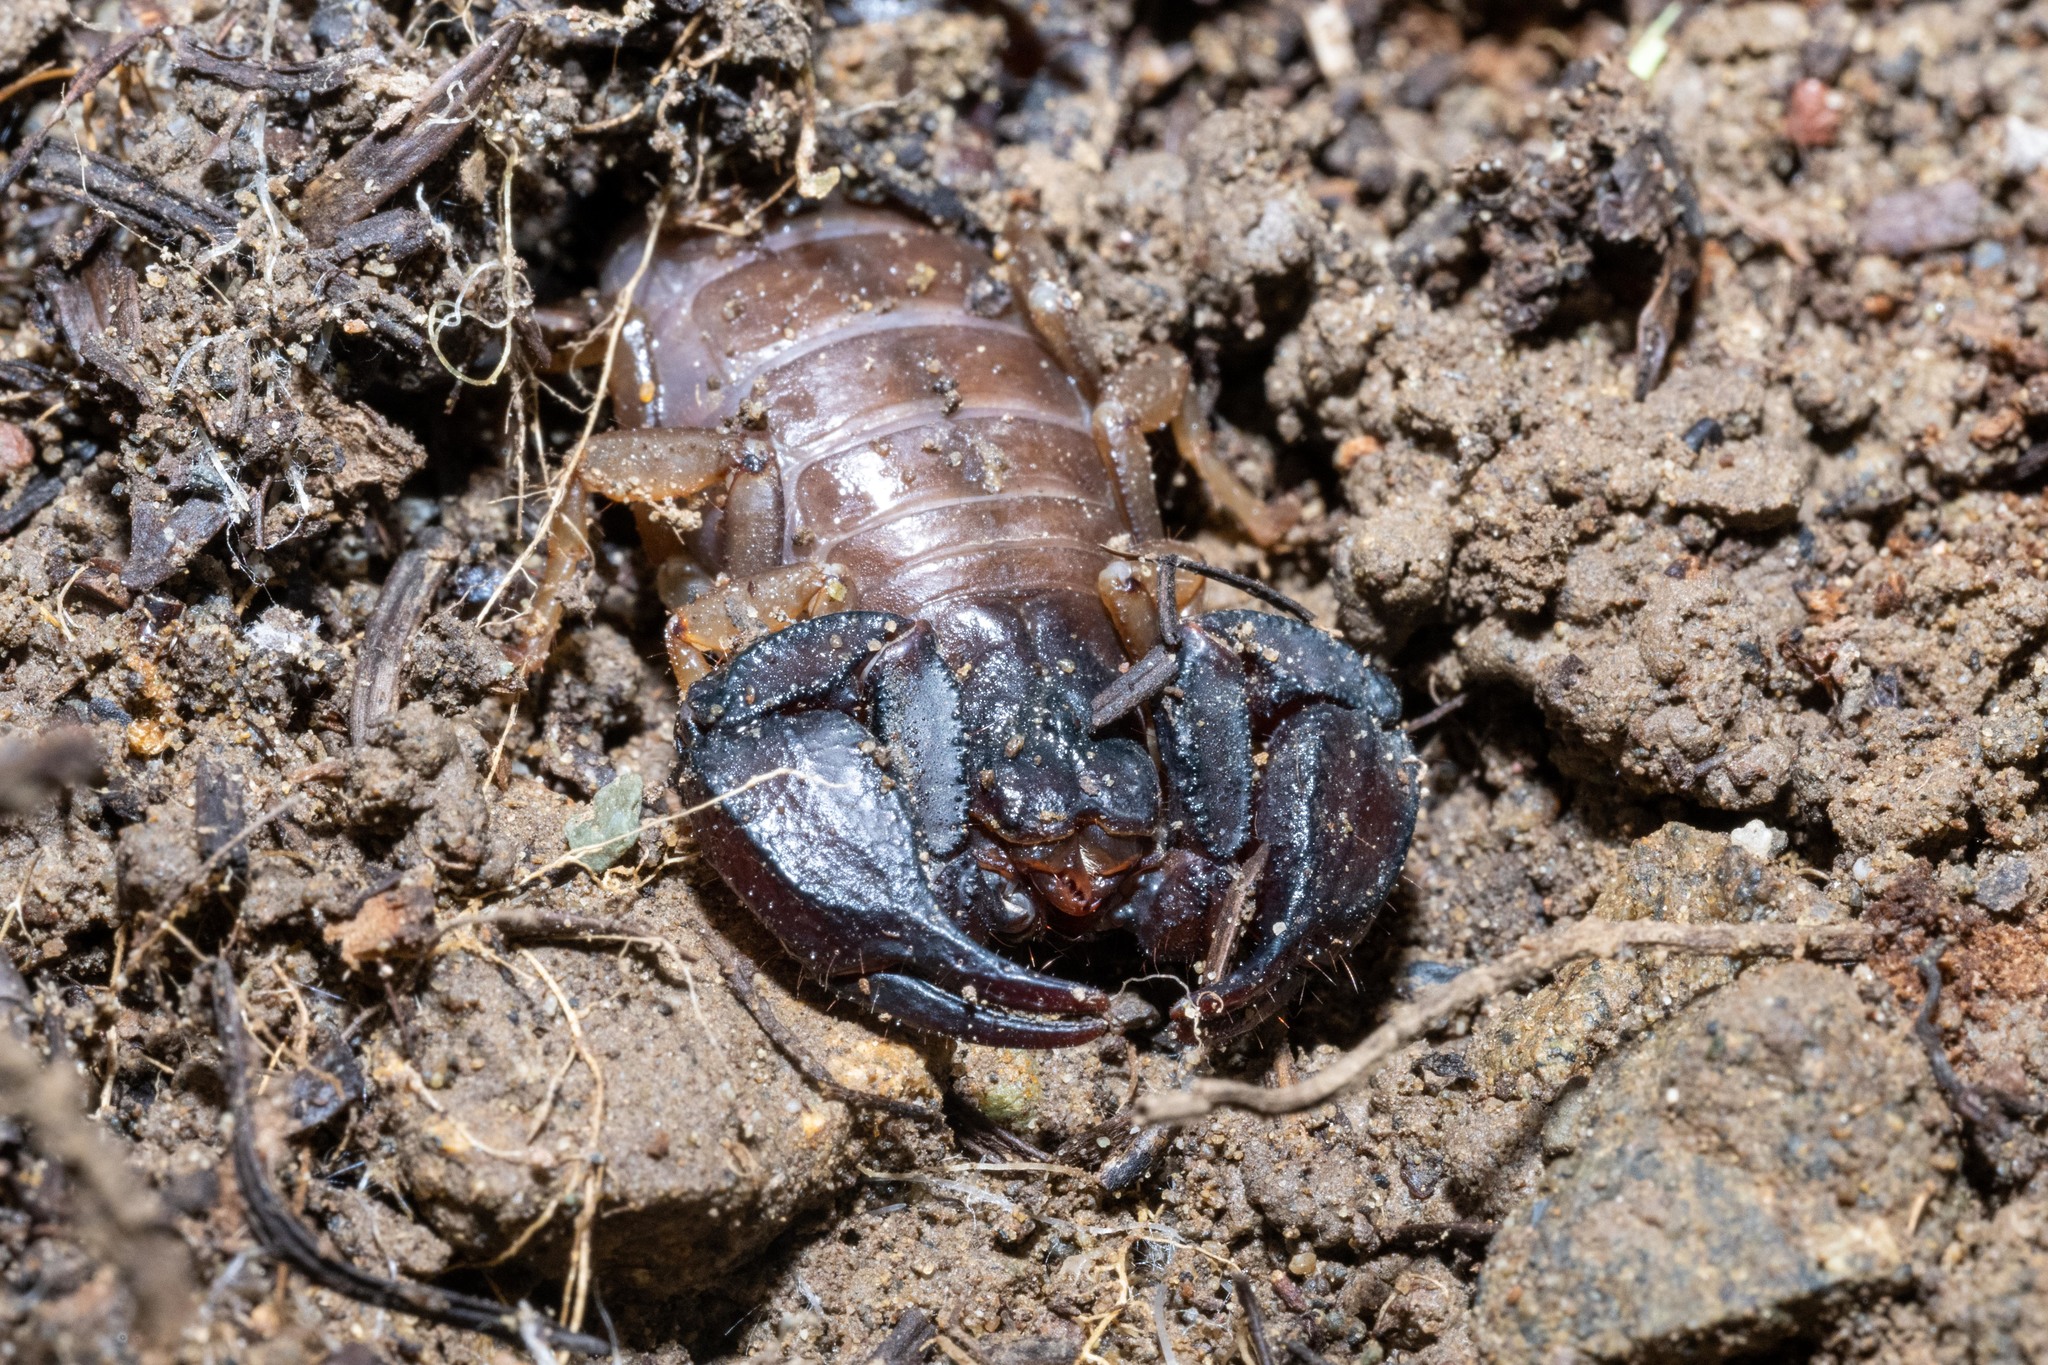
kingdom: Animalia
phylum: Arthropoda
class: Arachnida
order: Scorpiones
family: Chactidae
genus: Uroctonus
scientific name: Uroctonus mordax
